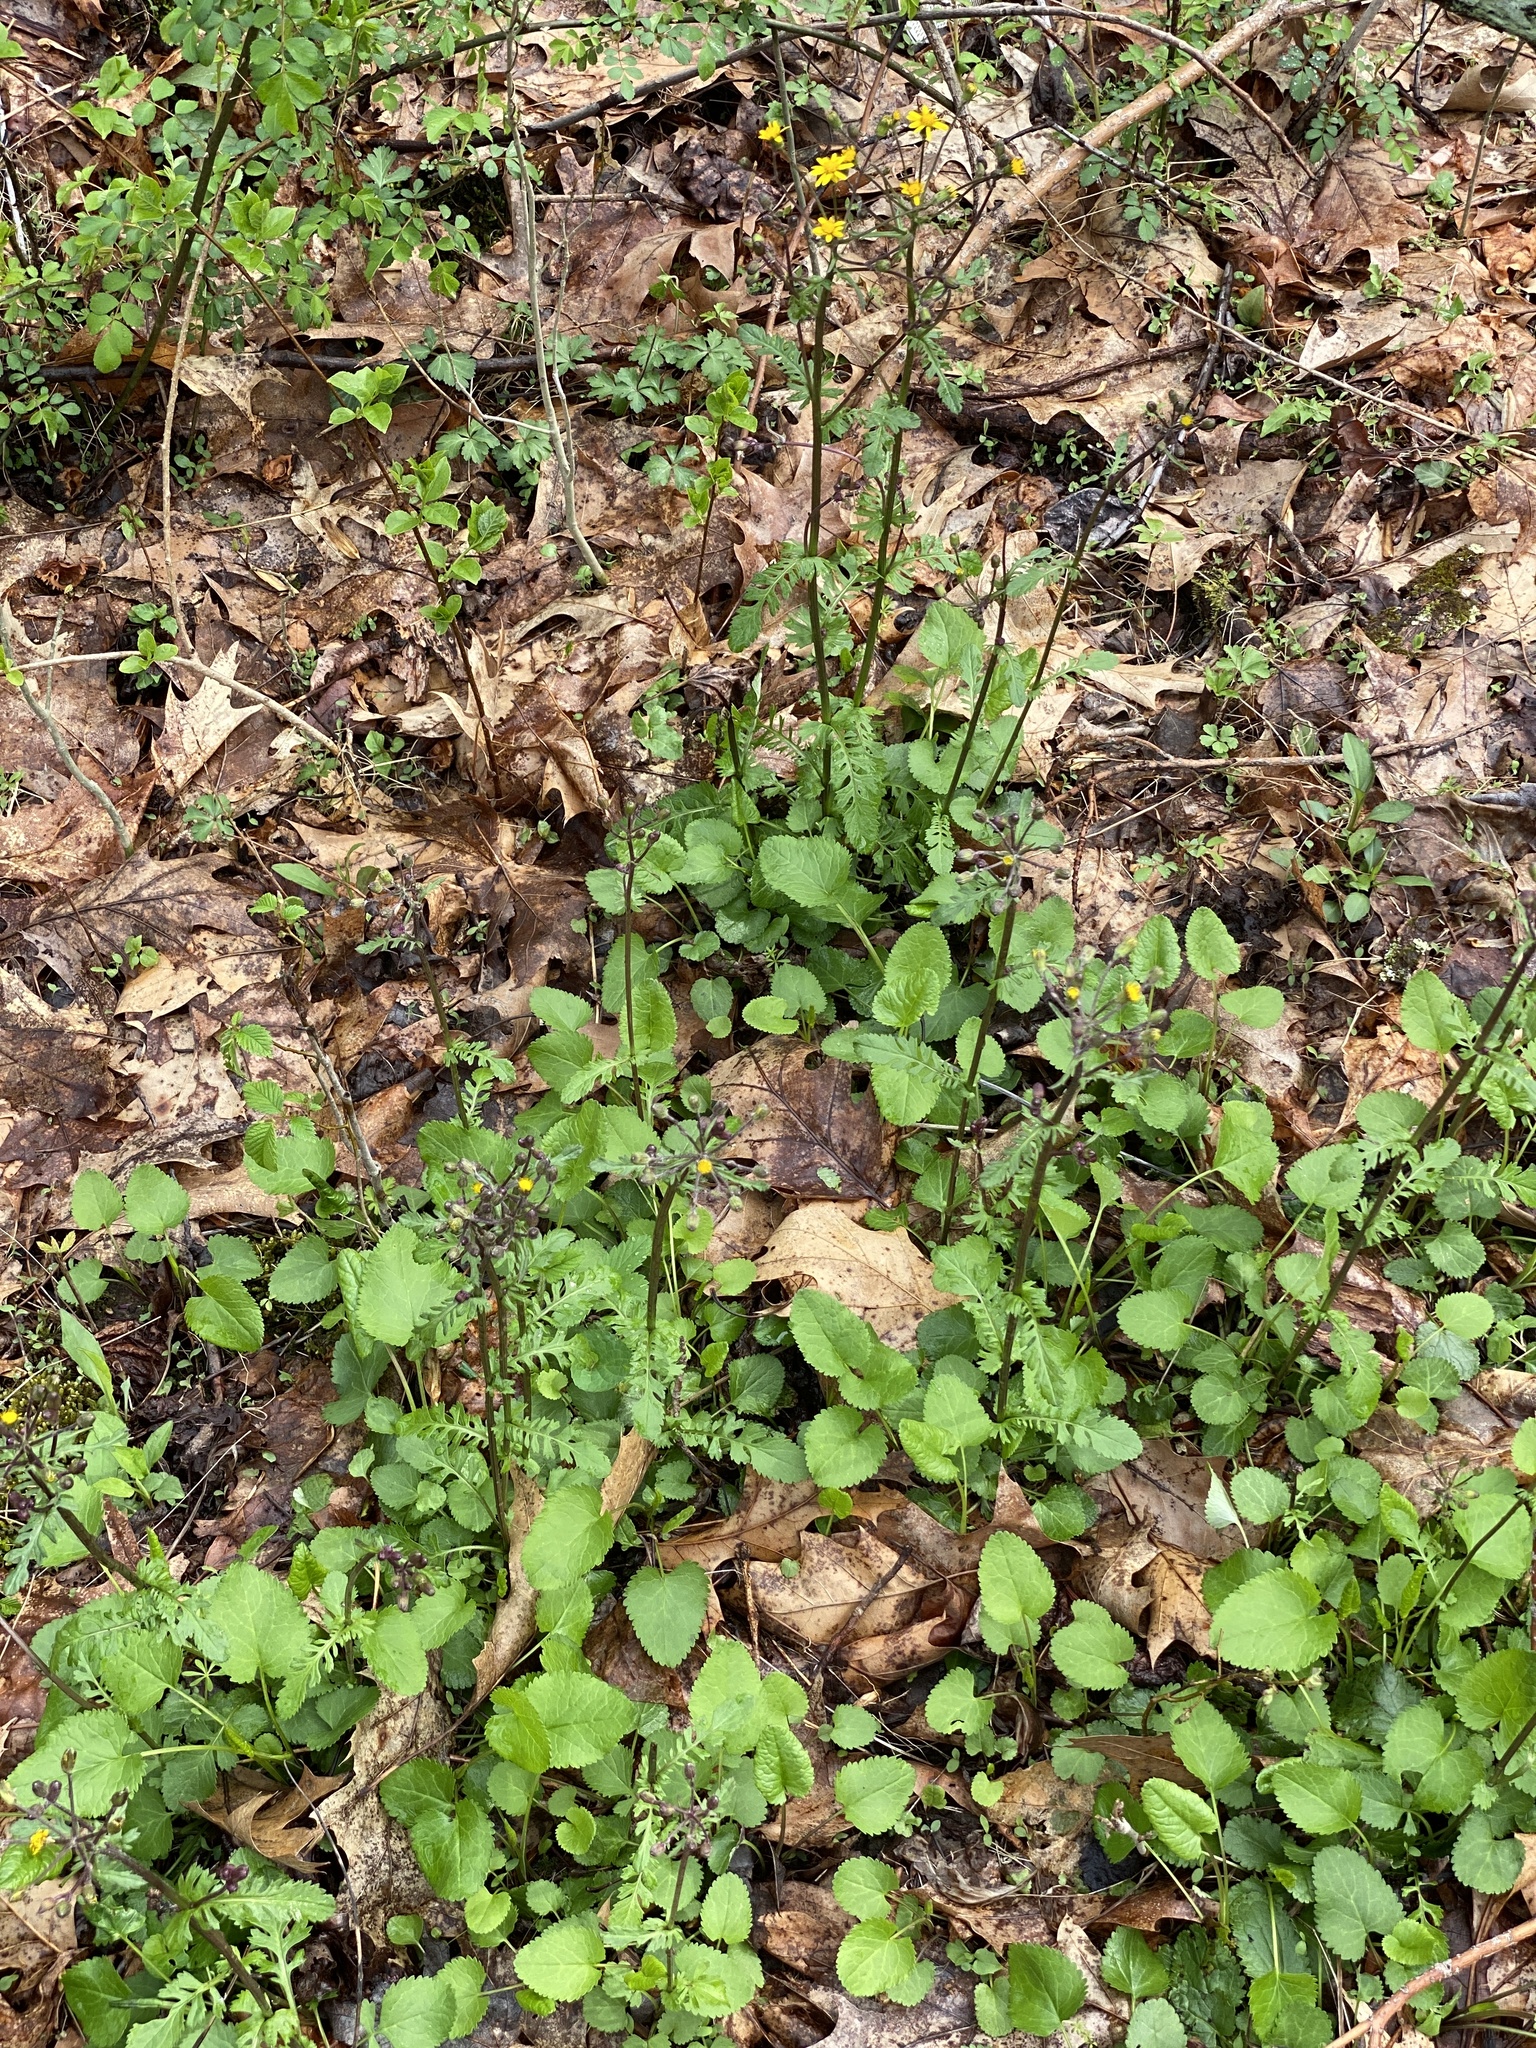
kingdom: Plantae
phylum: Tracheophyta
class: Magnoliopsida
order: Asterales
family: Asteraceae
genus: Packera
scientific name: Packera aurea
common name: Golden groundsel
